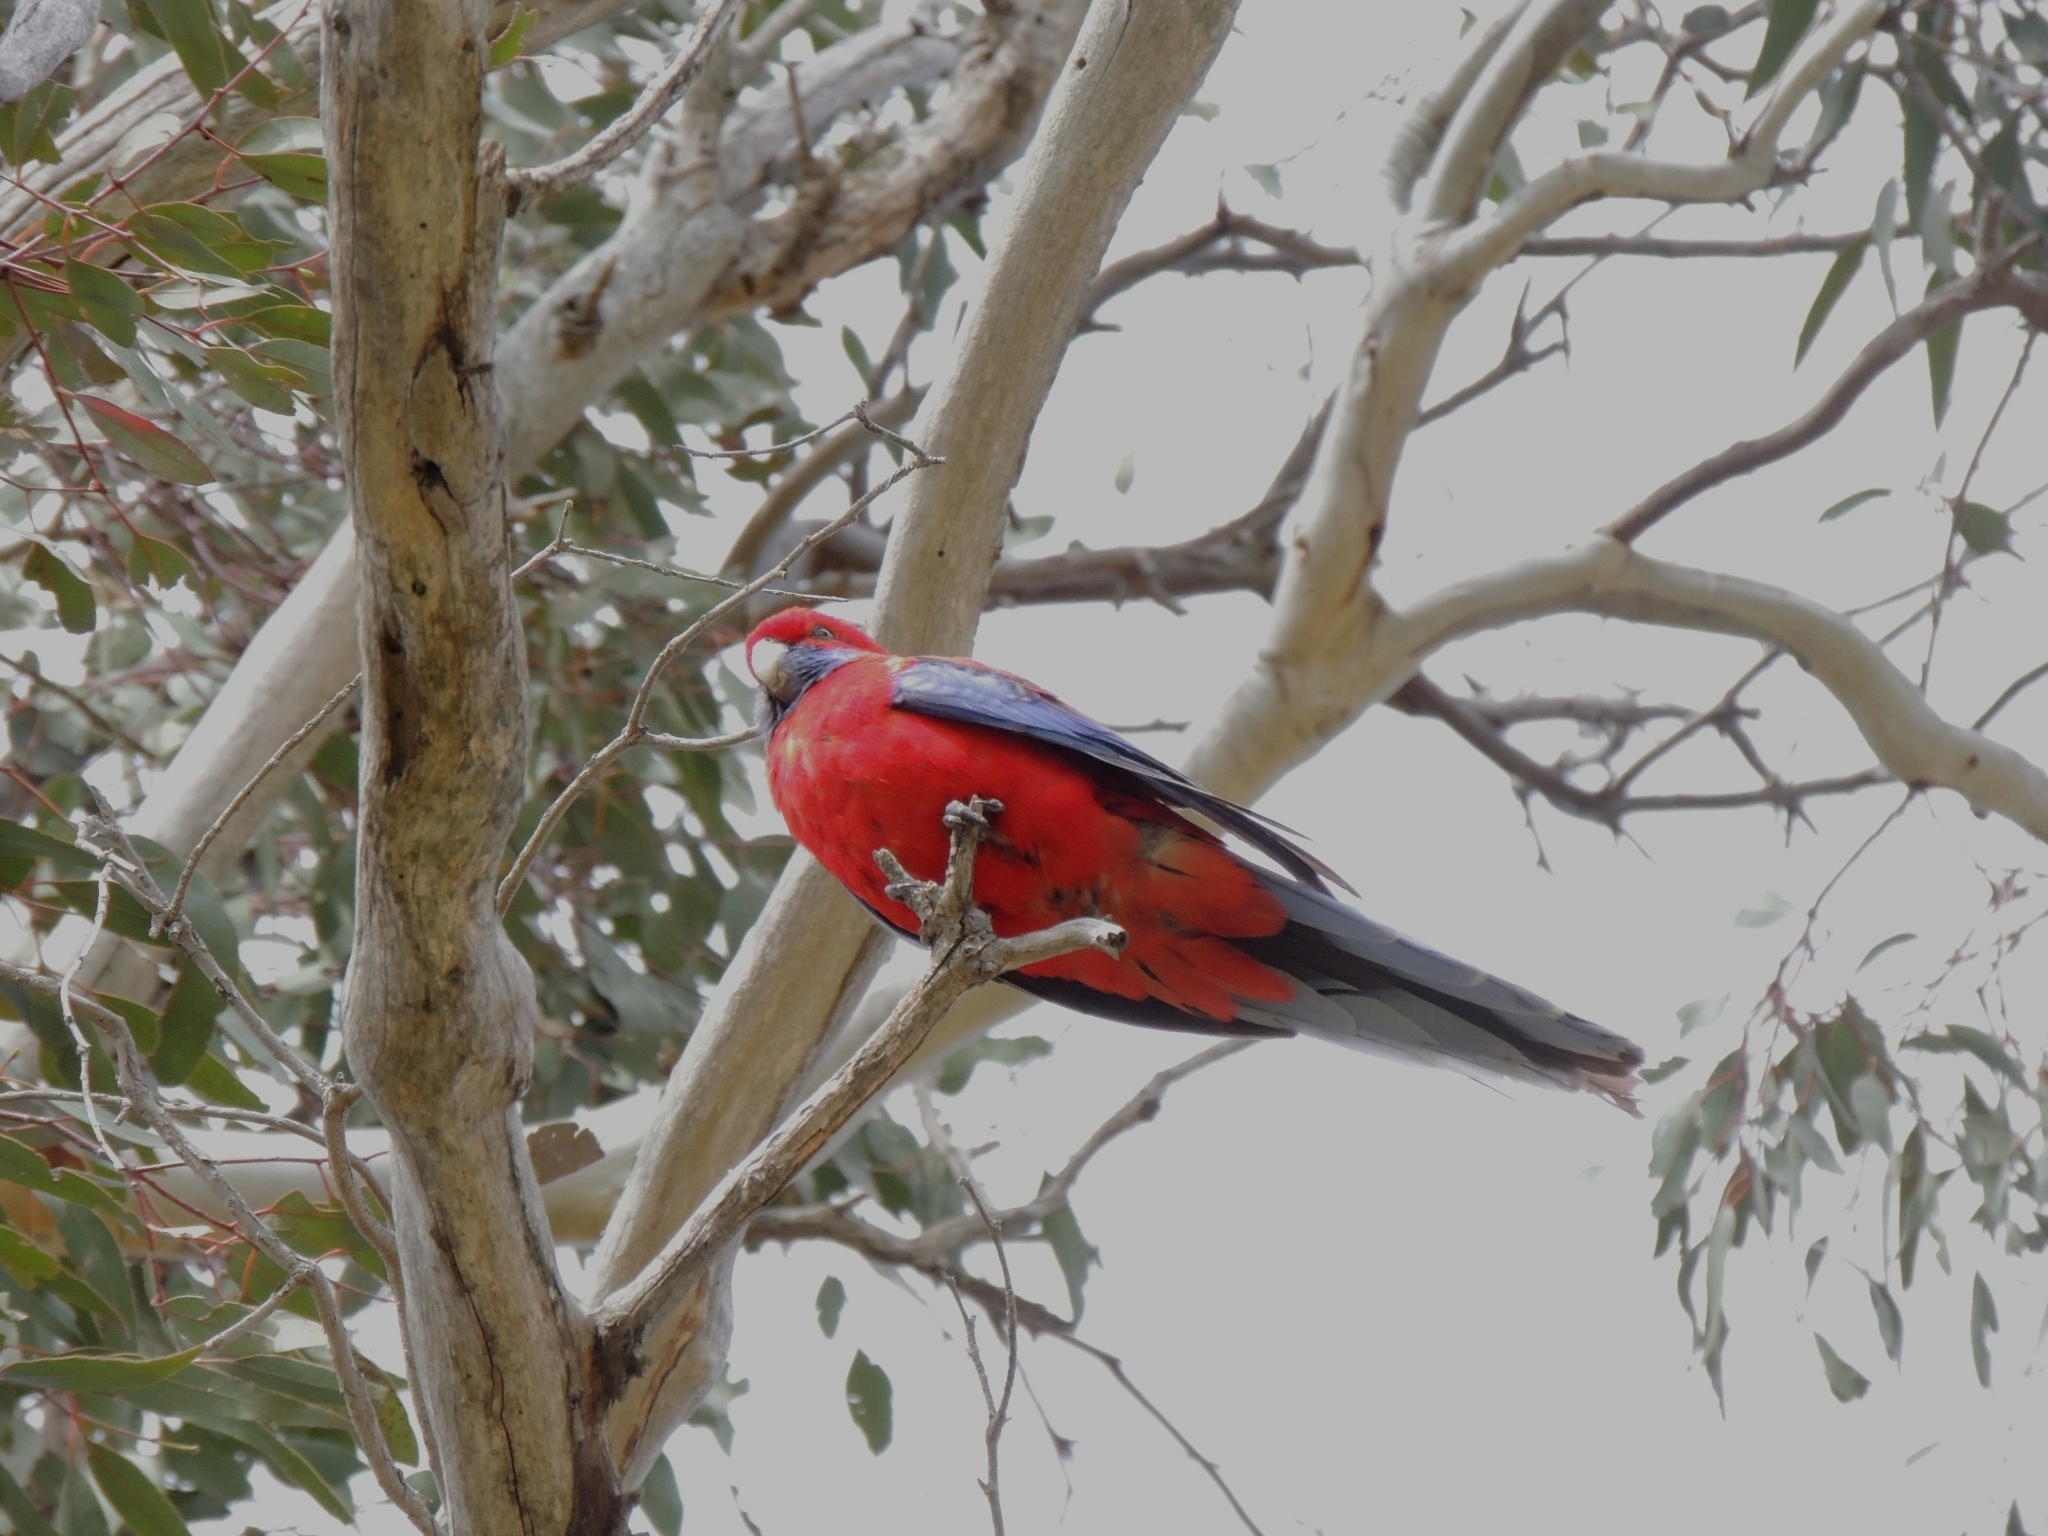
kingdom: Animalia
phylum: Chordata
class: Aves
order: Psittaciformes
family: Psittacidae
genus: Platycercus
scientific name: Platycercus elegans
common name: Crimson rosella
